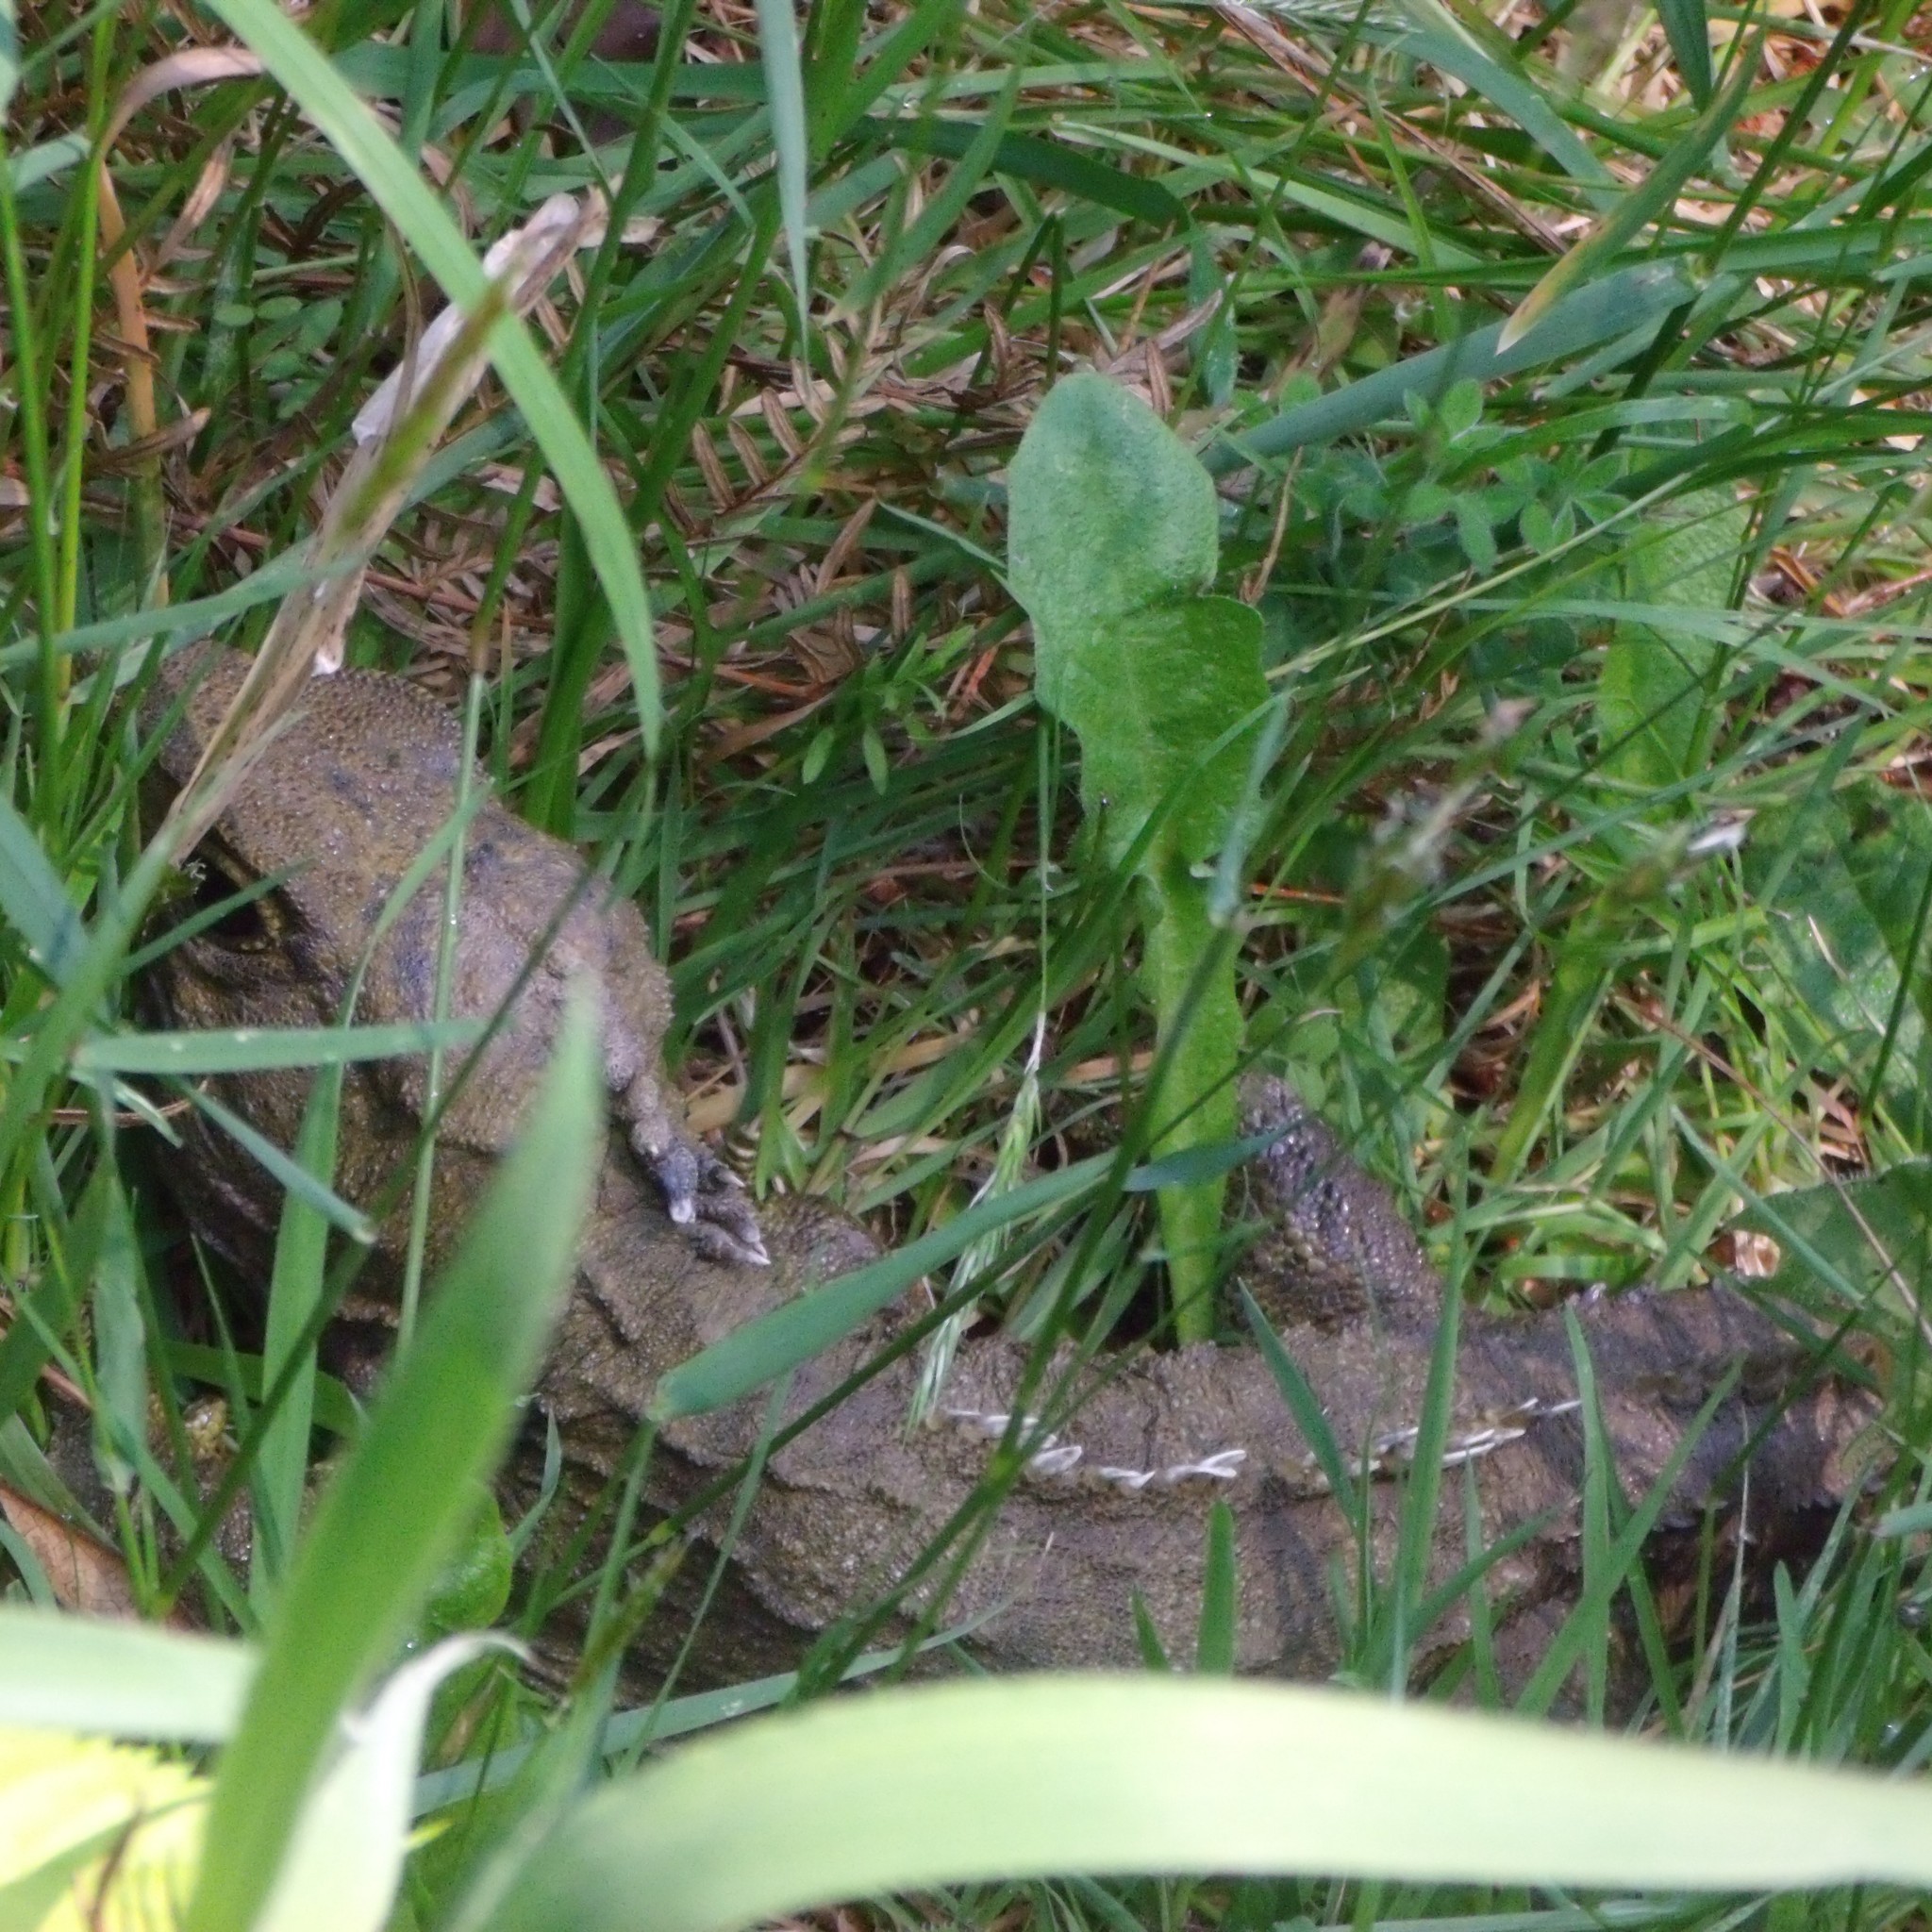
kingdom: Animalia
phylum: Chordata
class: Sphenodontia
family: Sphenodontidae
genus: Sphenodon
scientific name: Sphenodon punctatus
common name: Tuatara
